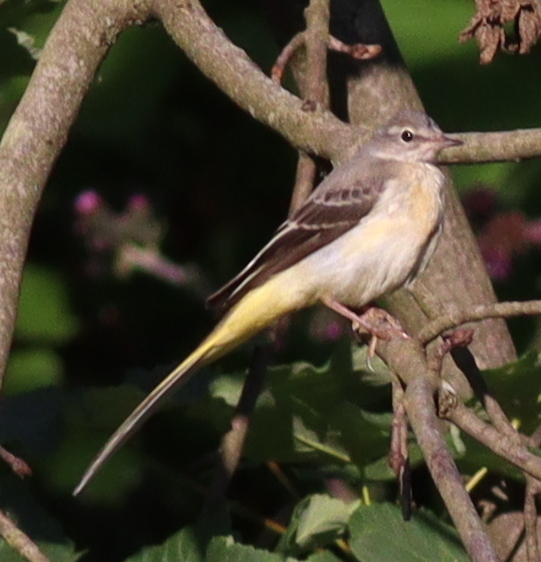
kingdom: Animalia
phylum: Chordata
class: Aves
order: Passeriformes
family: Motacillidae
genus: Motacilla
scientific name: Motacilla cinerea
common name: Grey wagtail
